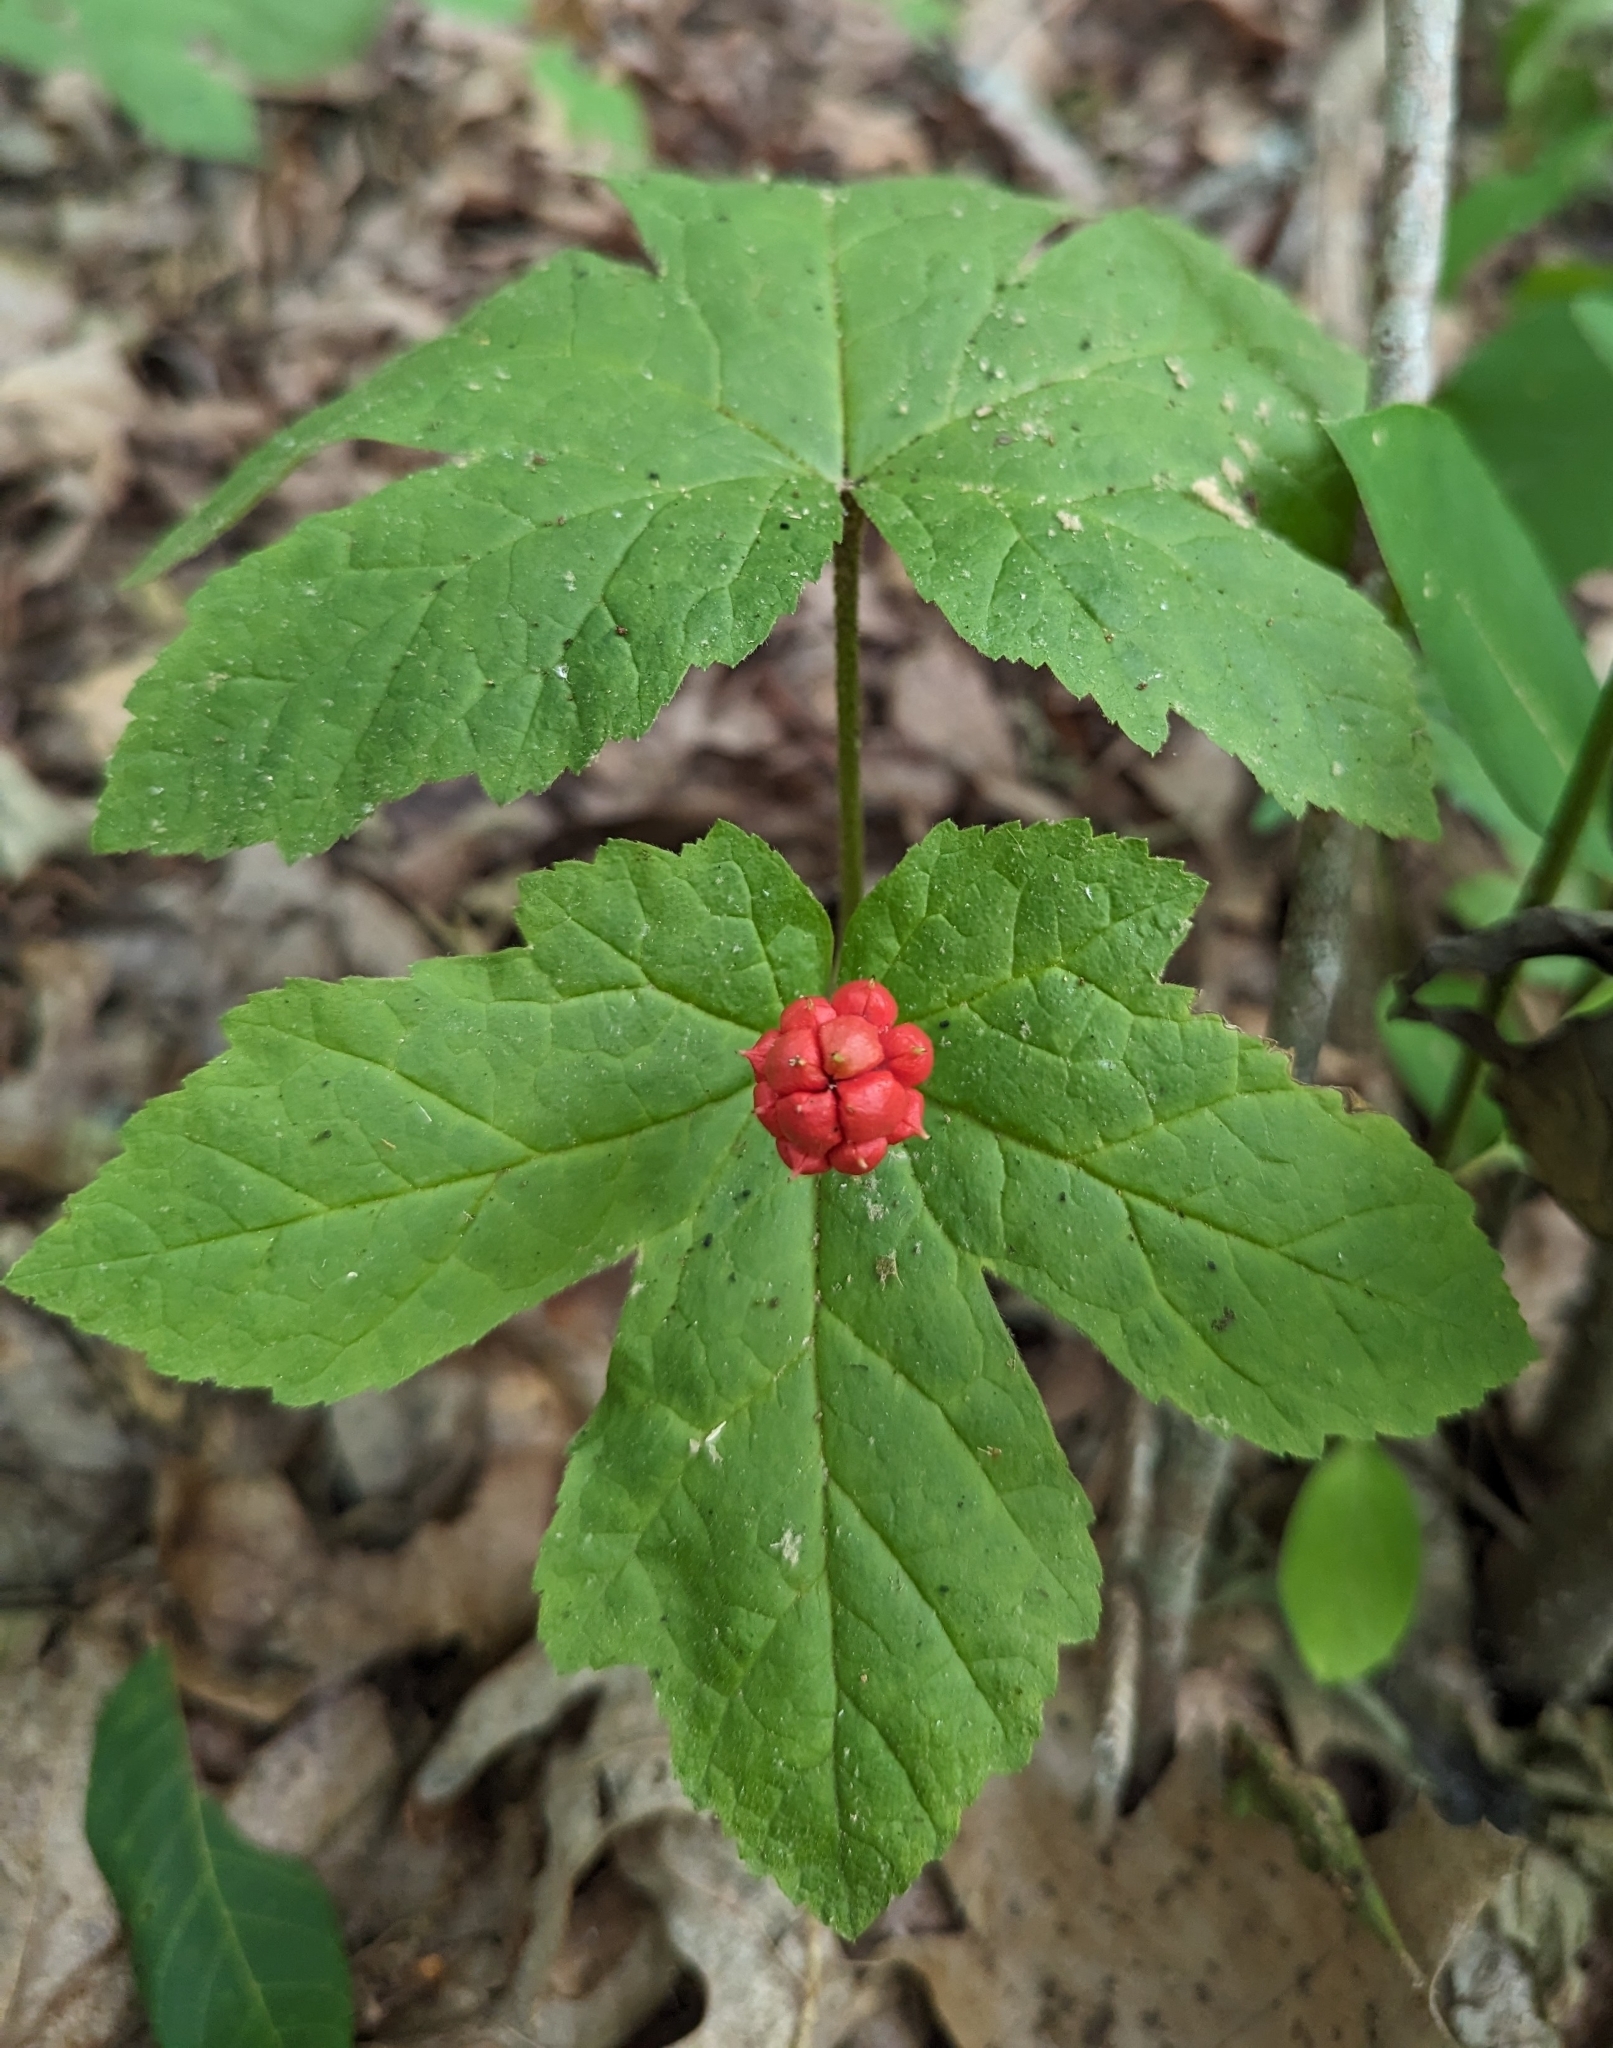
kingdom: Plantae
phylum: Tracheophyta
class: Magnoliopsida
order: Ranunculales
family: Ranunculaceae
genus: Hydrastis
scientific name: Hydrastis canadensis
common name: Goldenseal
